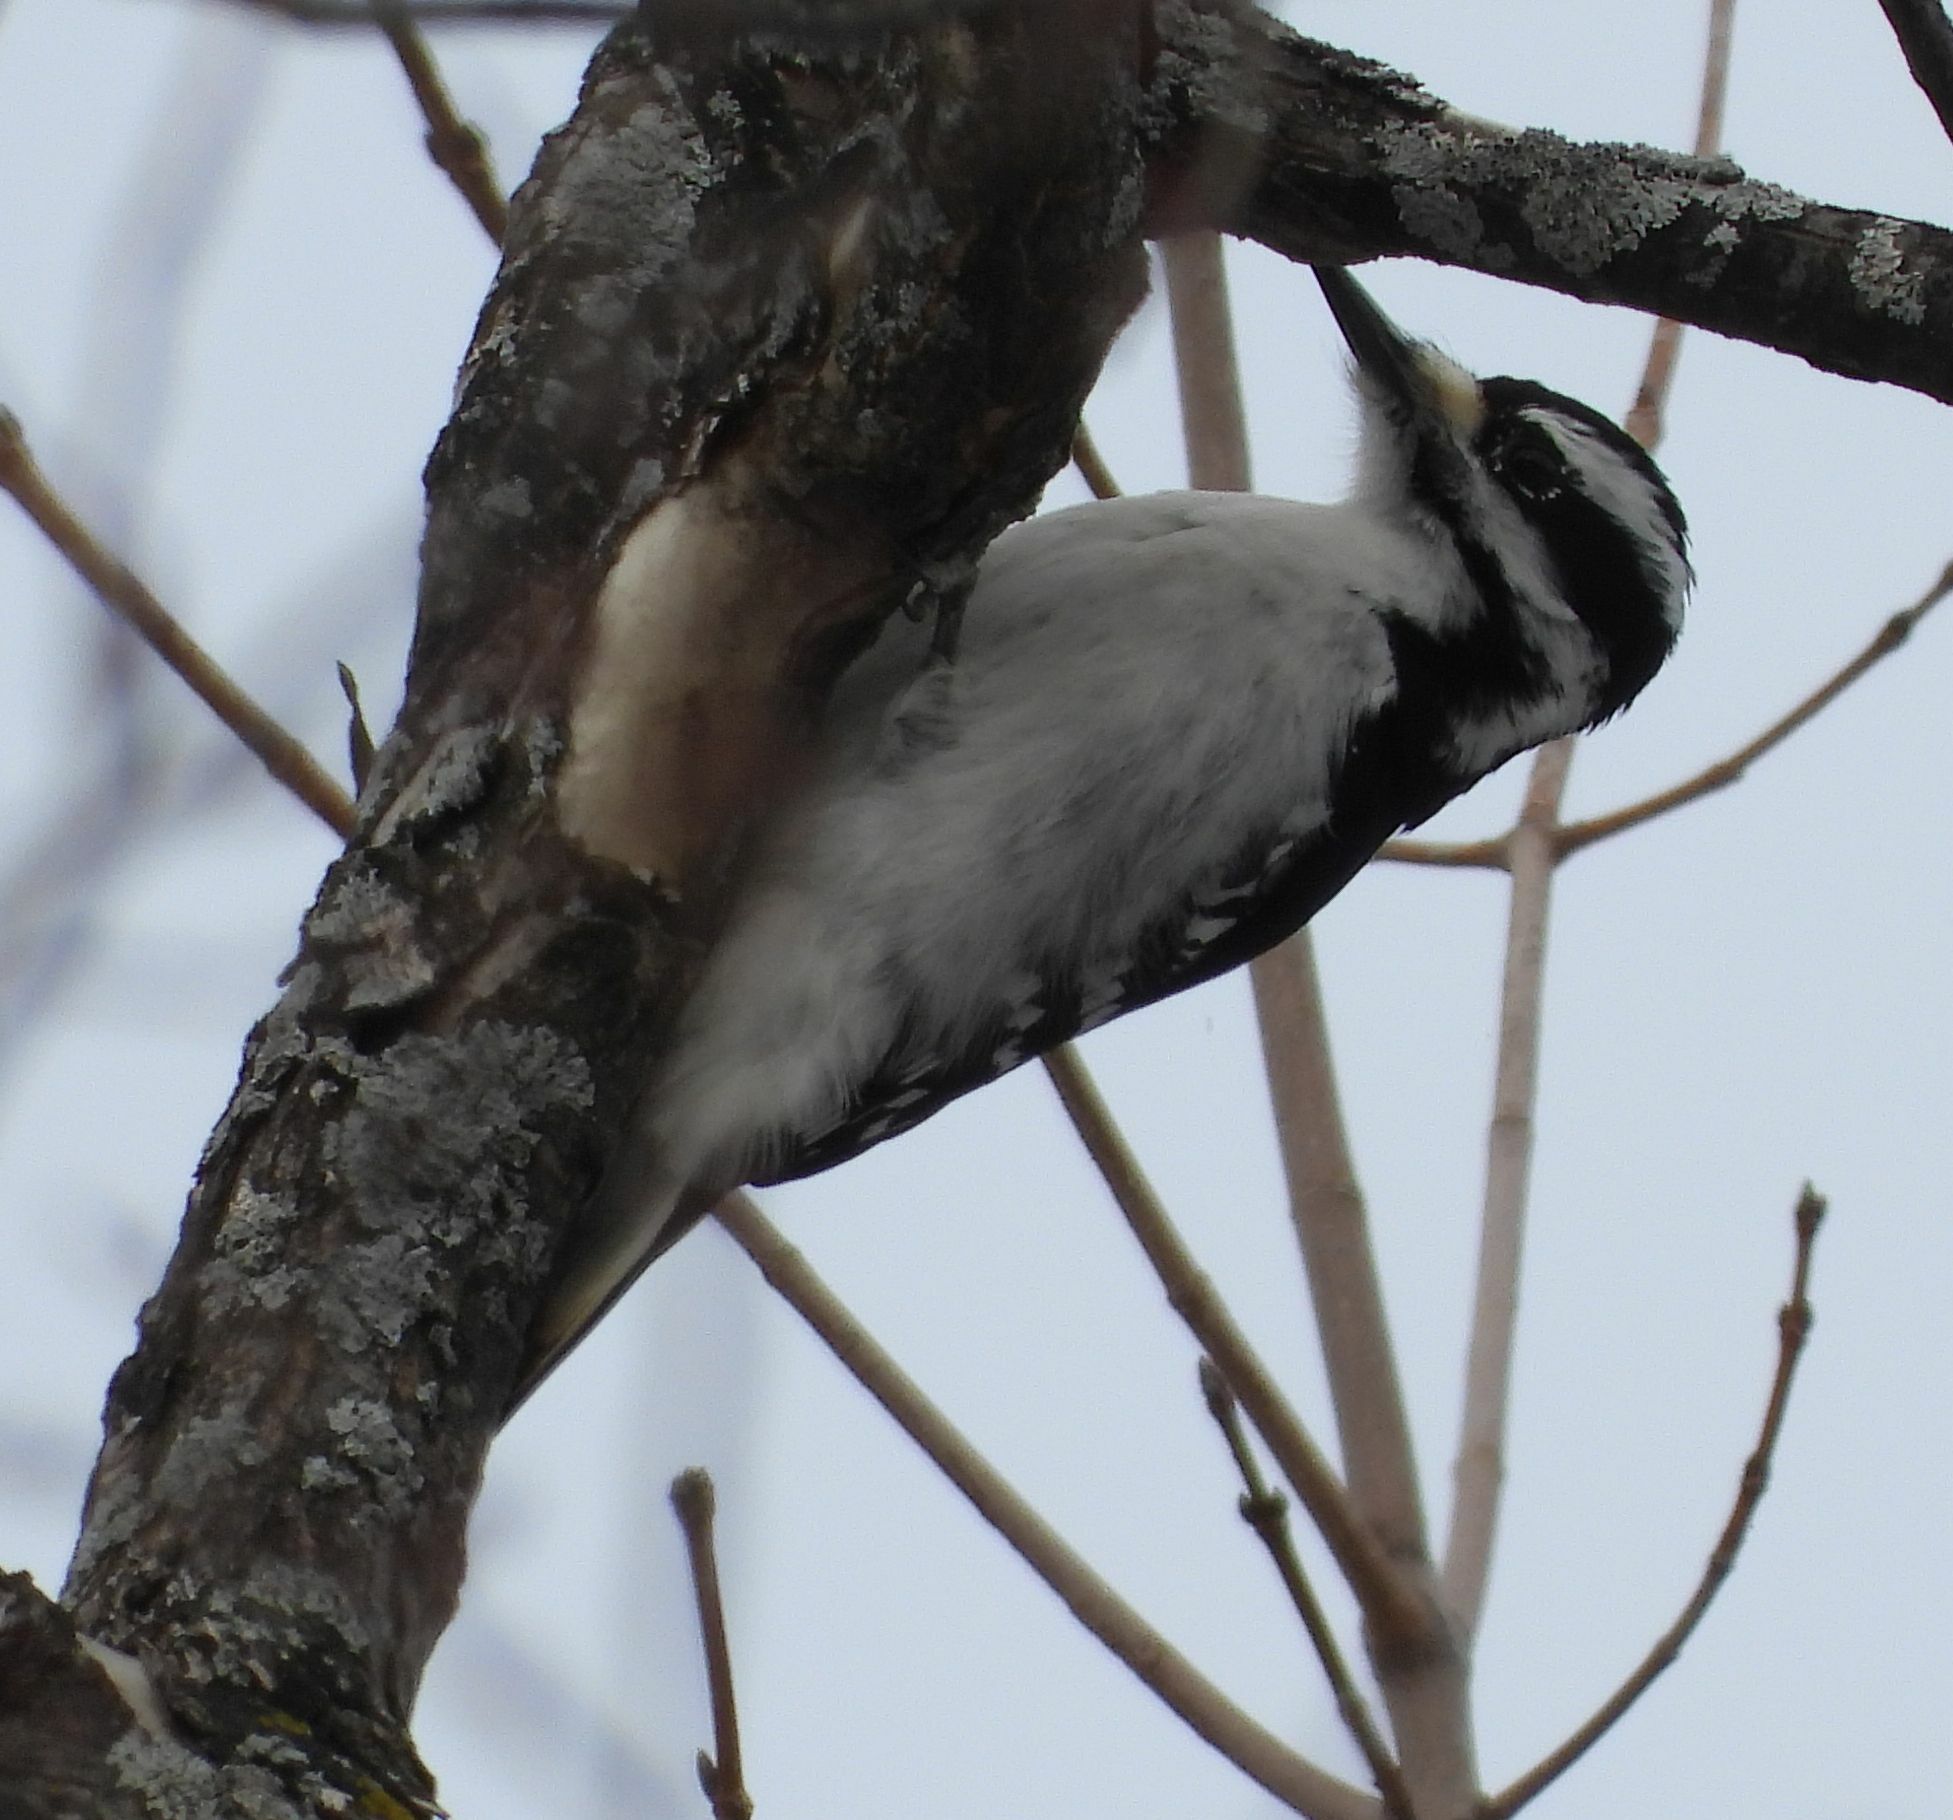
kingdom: Animalia
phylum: Chordata
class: Aves
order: Piciformes
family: Picidae
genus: Leuconotopicus
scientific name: Leuconotopicus villosus
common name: Hairy woodpecker
